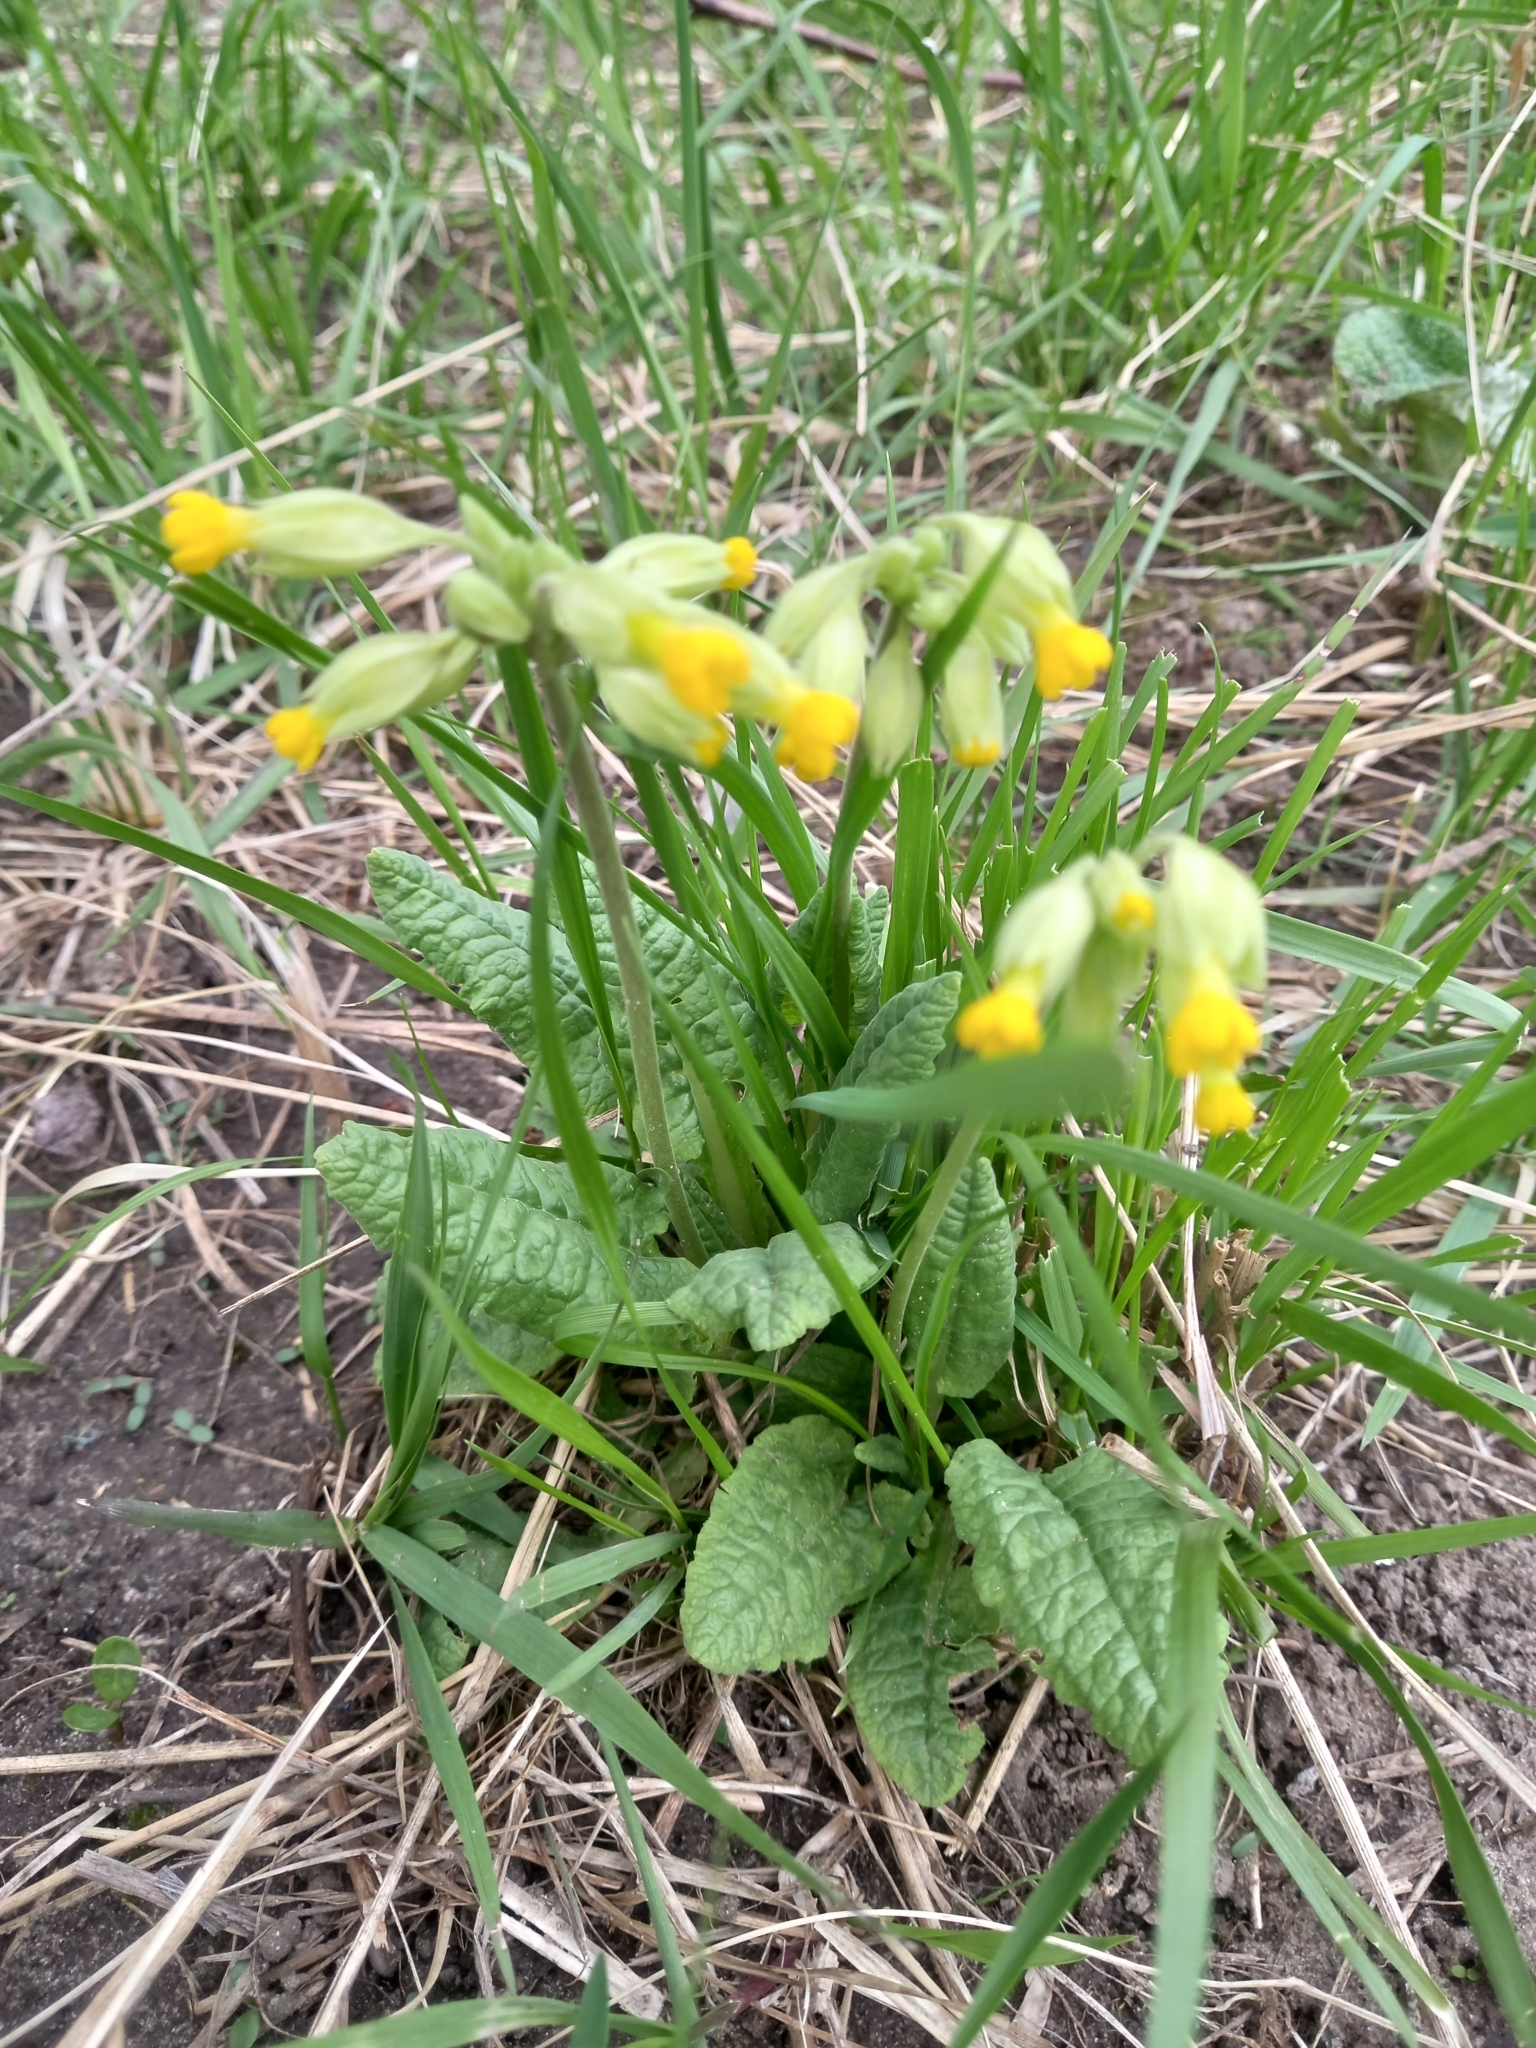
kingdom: Plantae
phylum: Tracheophyta
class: Magnoliopsida
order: Ericales
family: Primulaceae
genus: Primula
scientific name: Primula veris
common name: Cowslip
